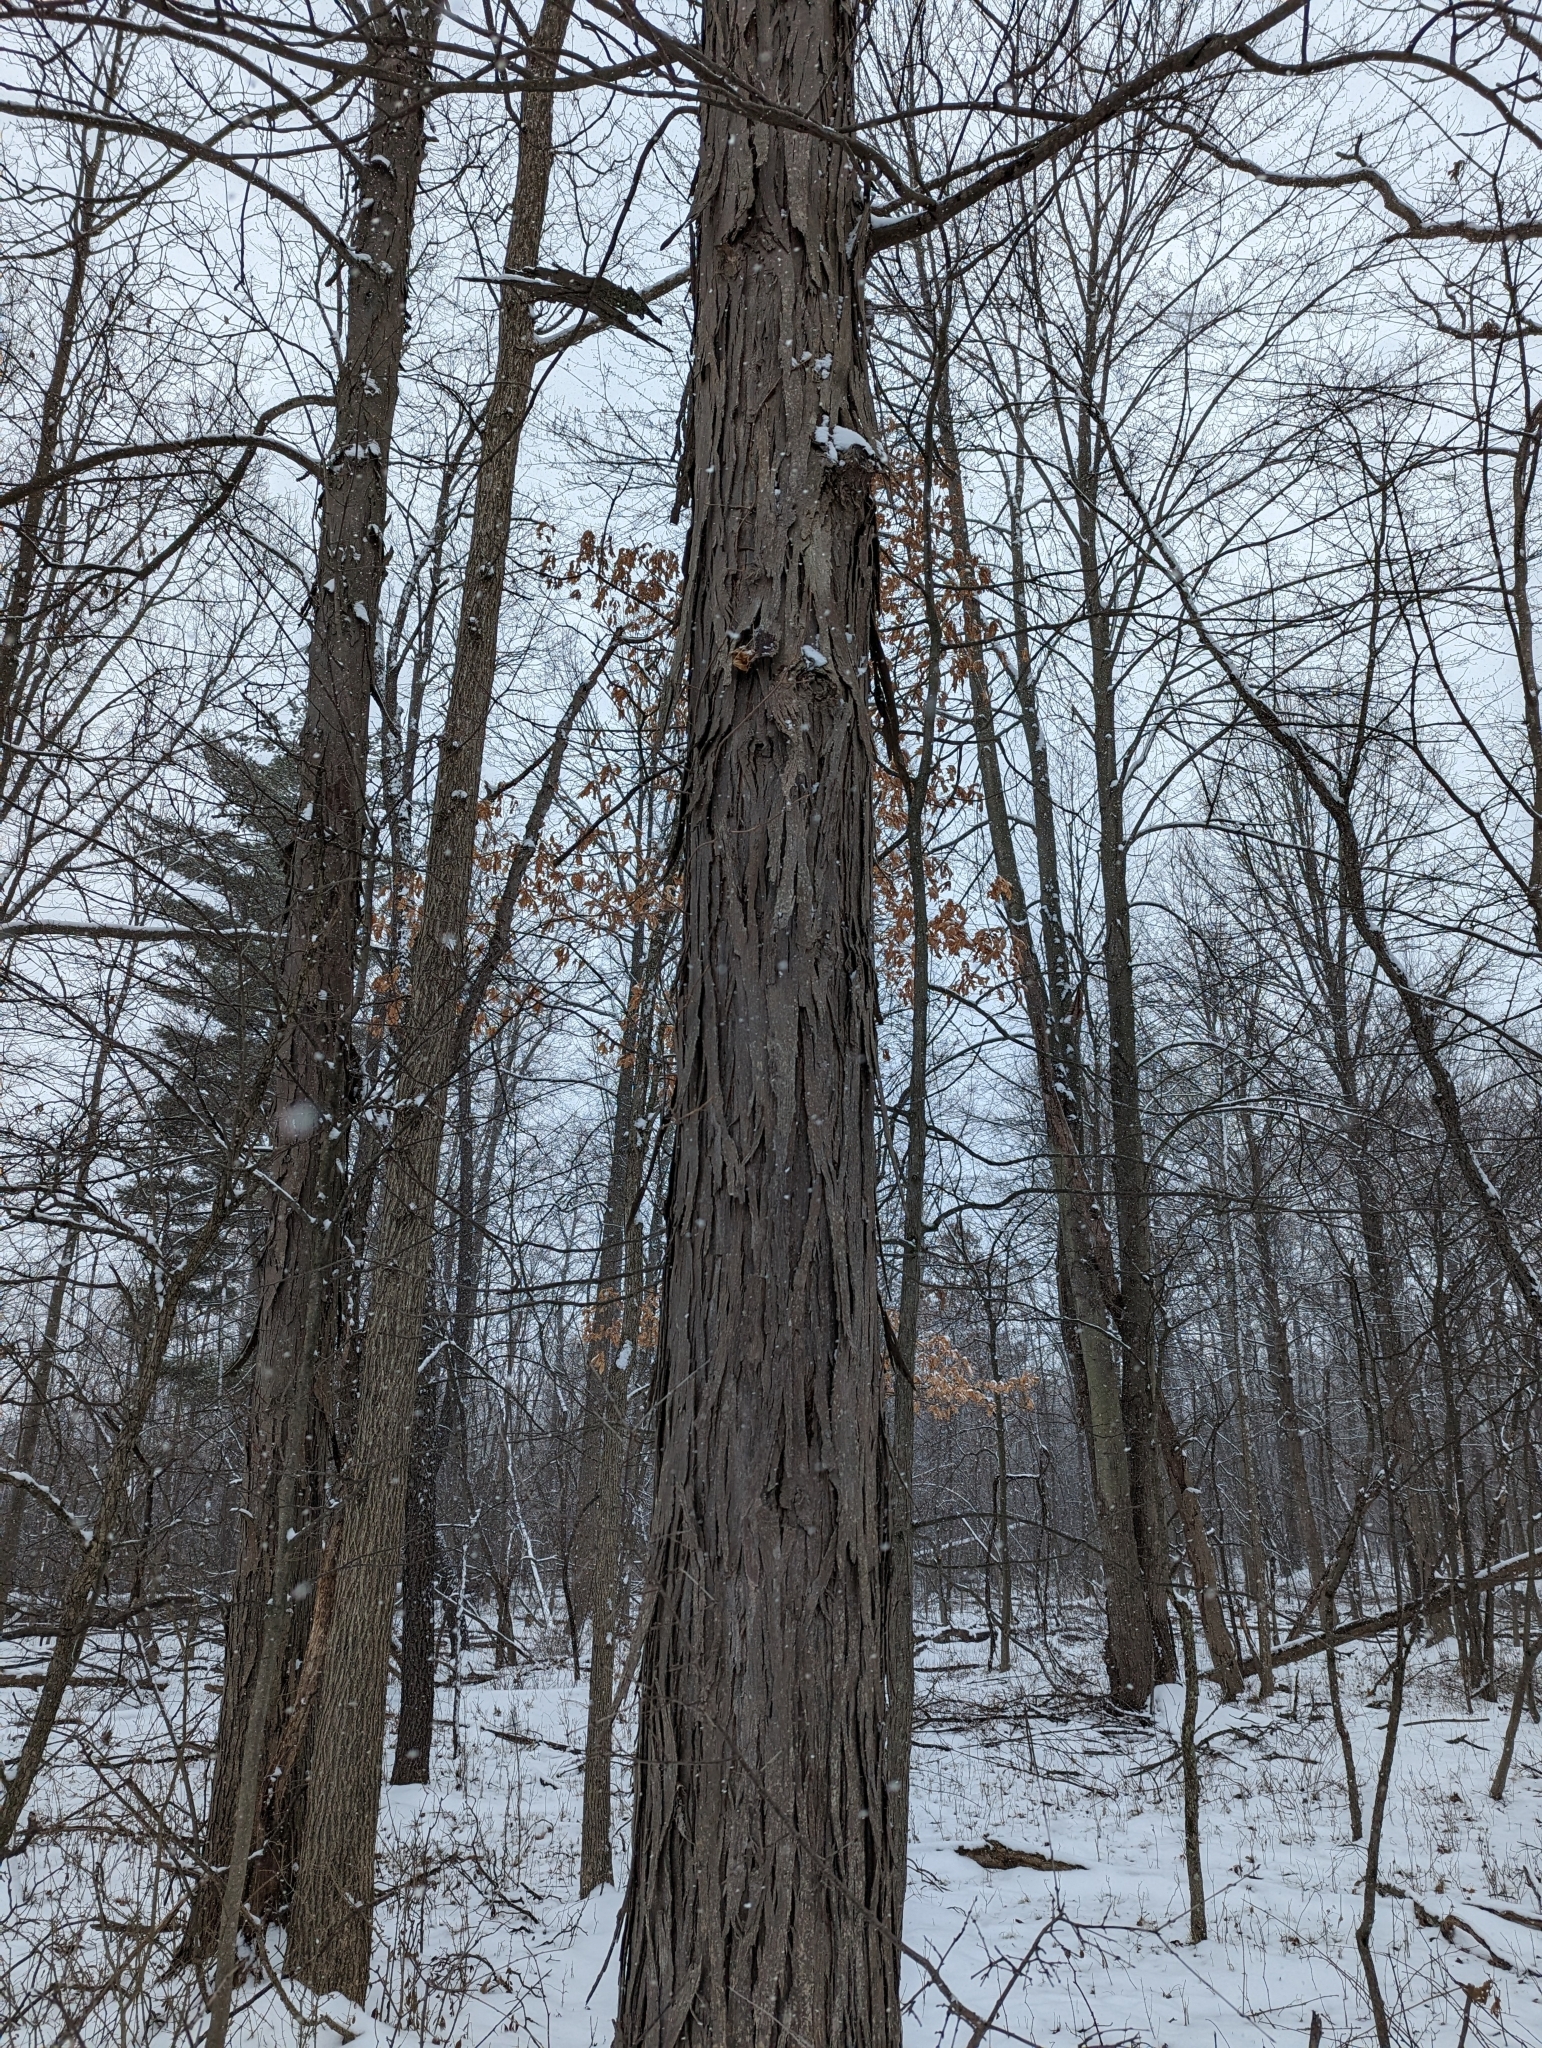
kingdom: Plantae
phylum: Tracheophyta
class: Magnoliopsida
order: Fagales
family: Juglandaceae
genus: Carya
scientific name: Carya ovata
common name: Shagbark hickory
